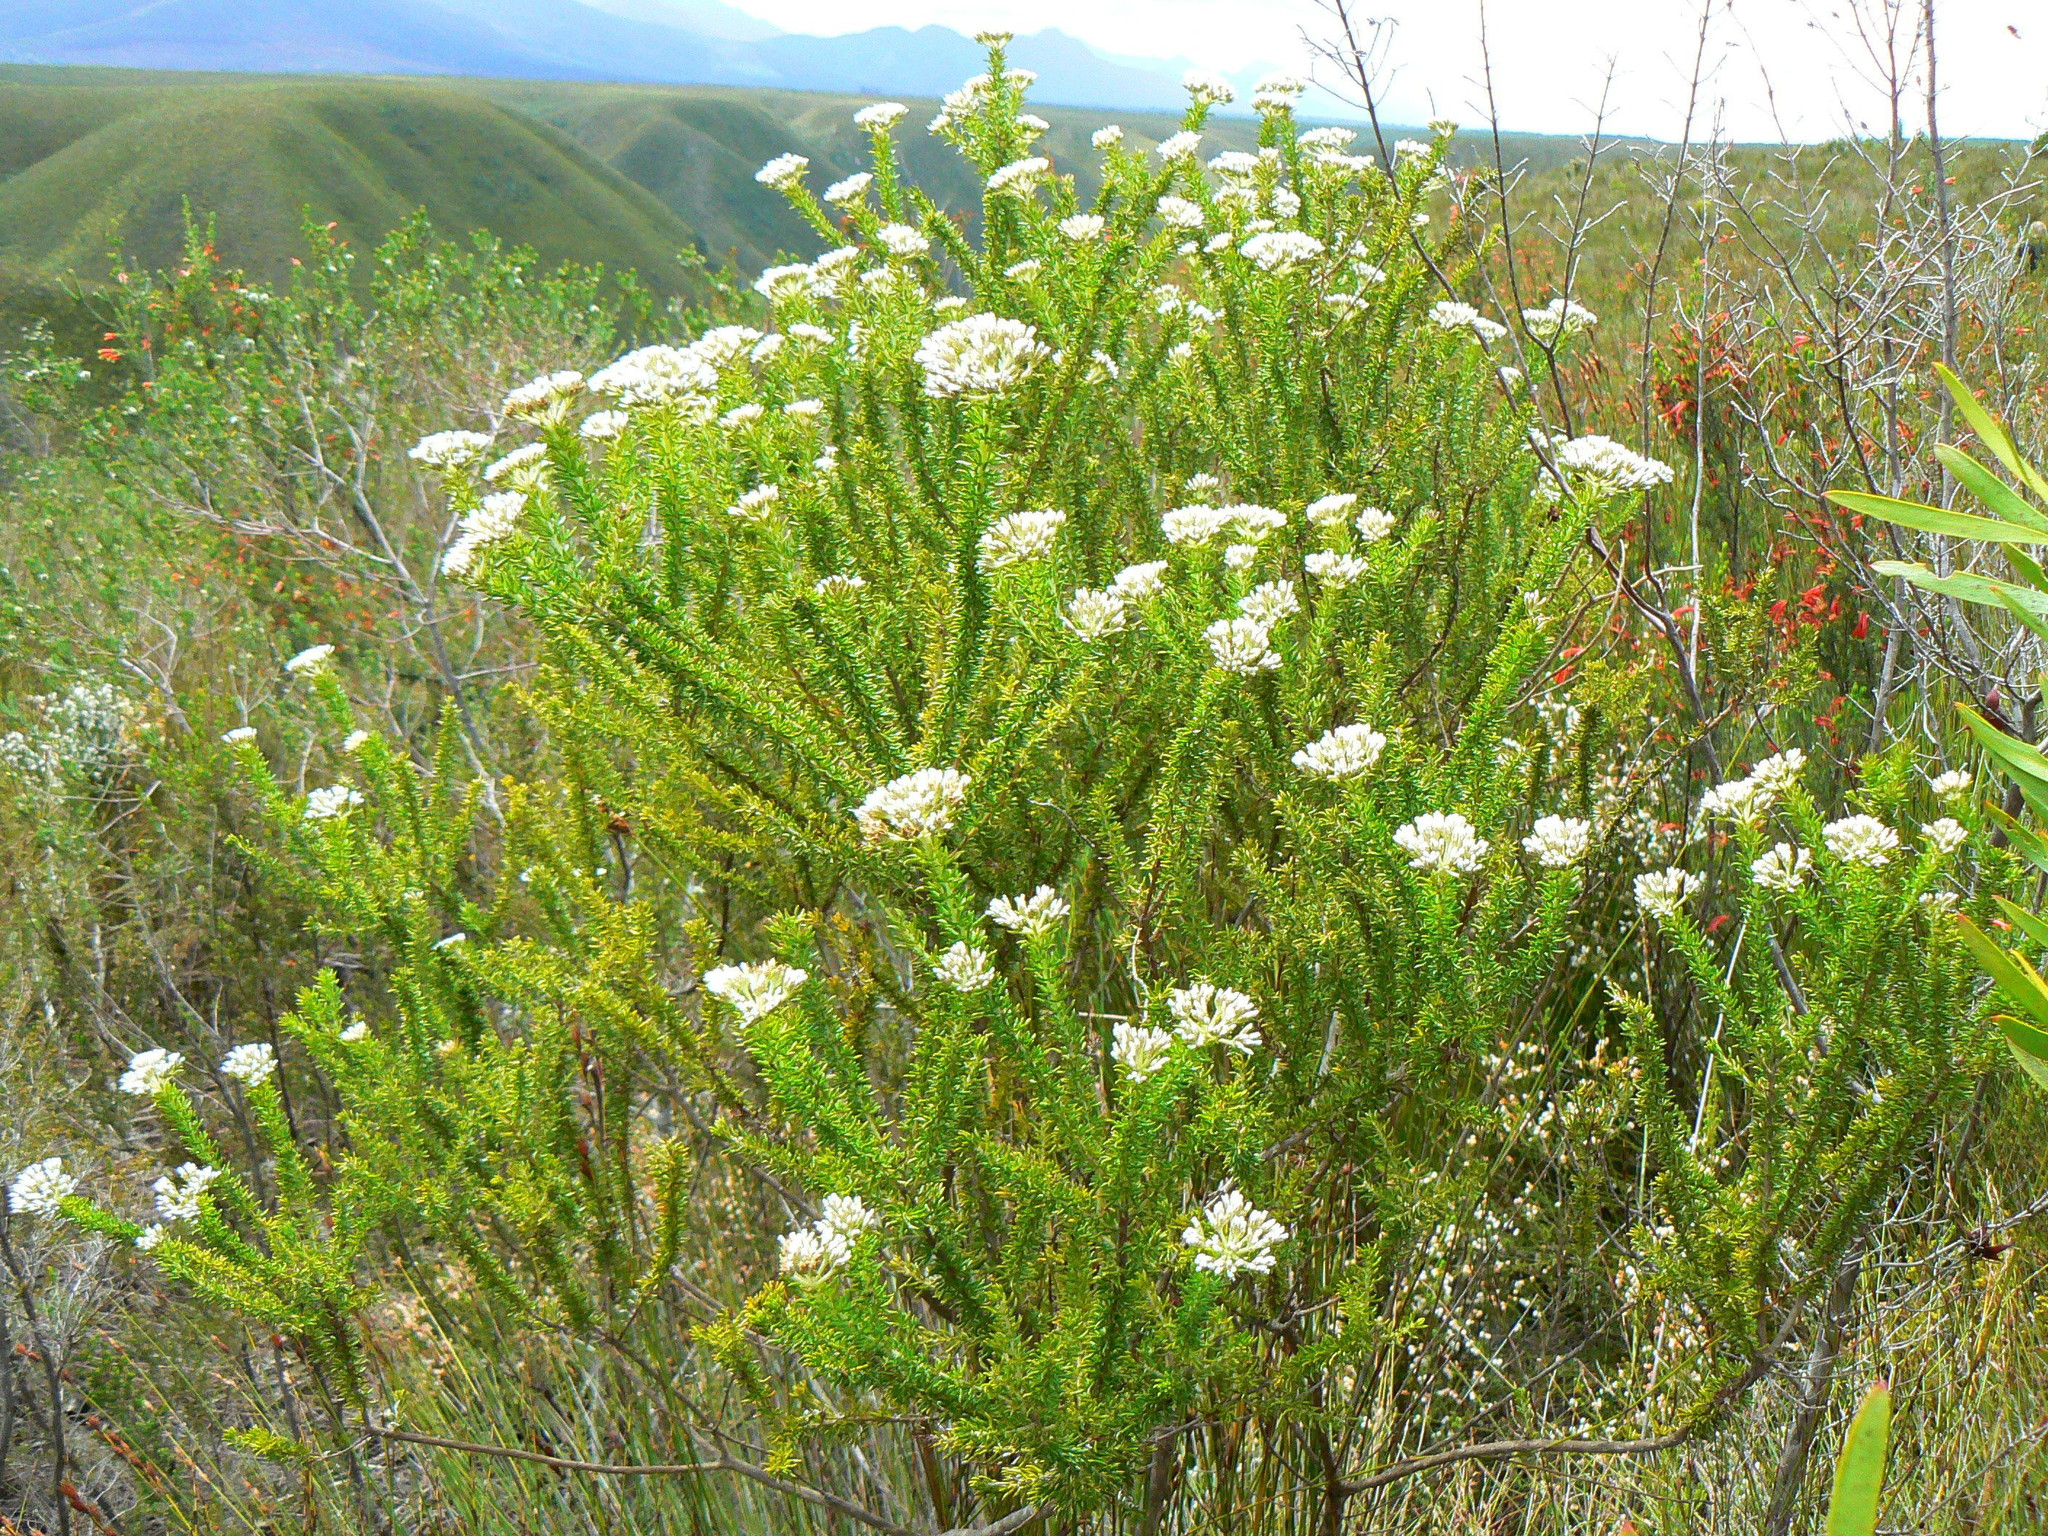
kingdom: Plantae
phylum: Tracheophyta
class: Magnoliopsida
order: Asterales
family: Asteraceae
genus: Metalasia
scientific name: Metalasia trivialis
